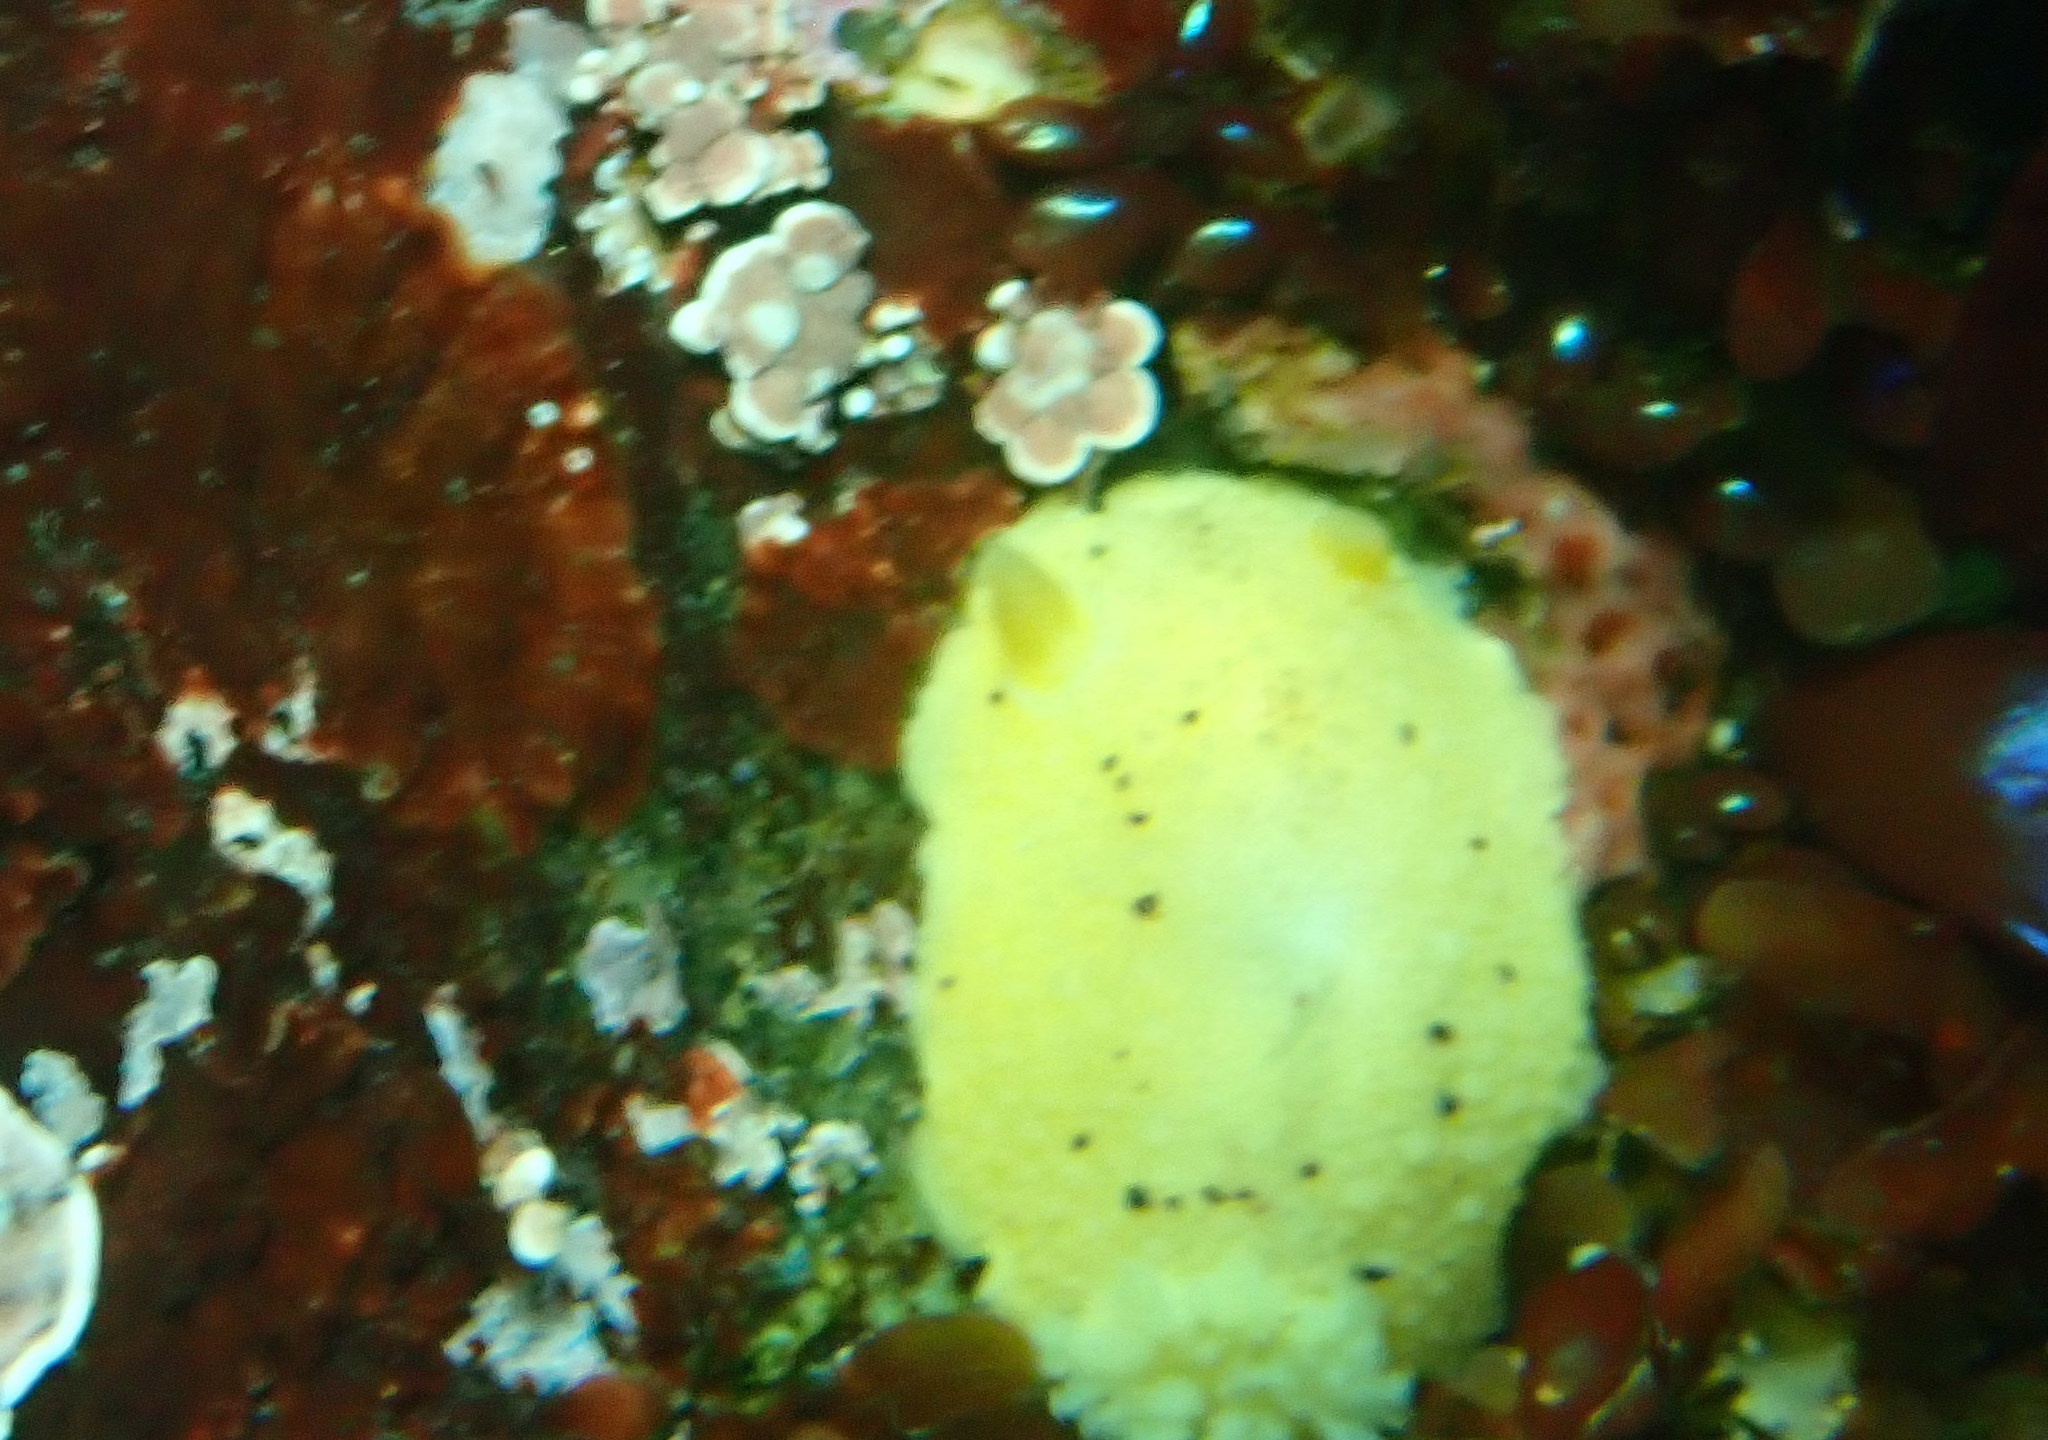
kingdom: Animalia
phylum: Mollusca
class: Gastropoda
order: Nudibranchia
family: Dorididae
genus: Doris
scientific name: Doris montereyensis
